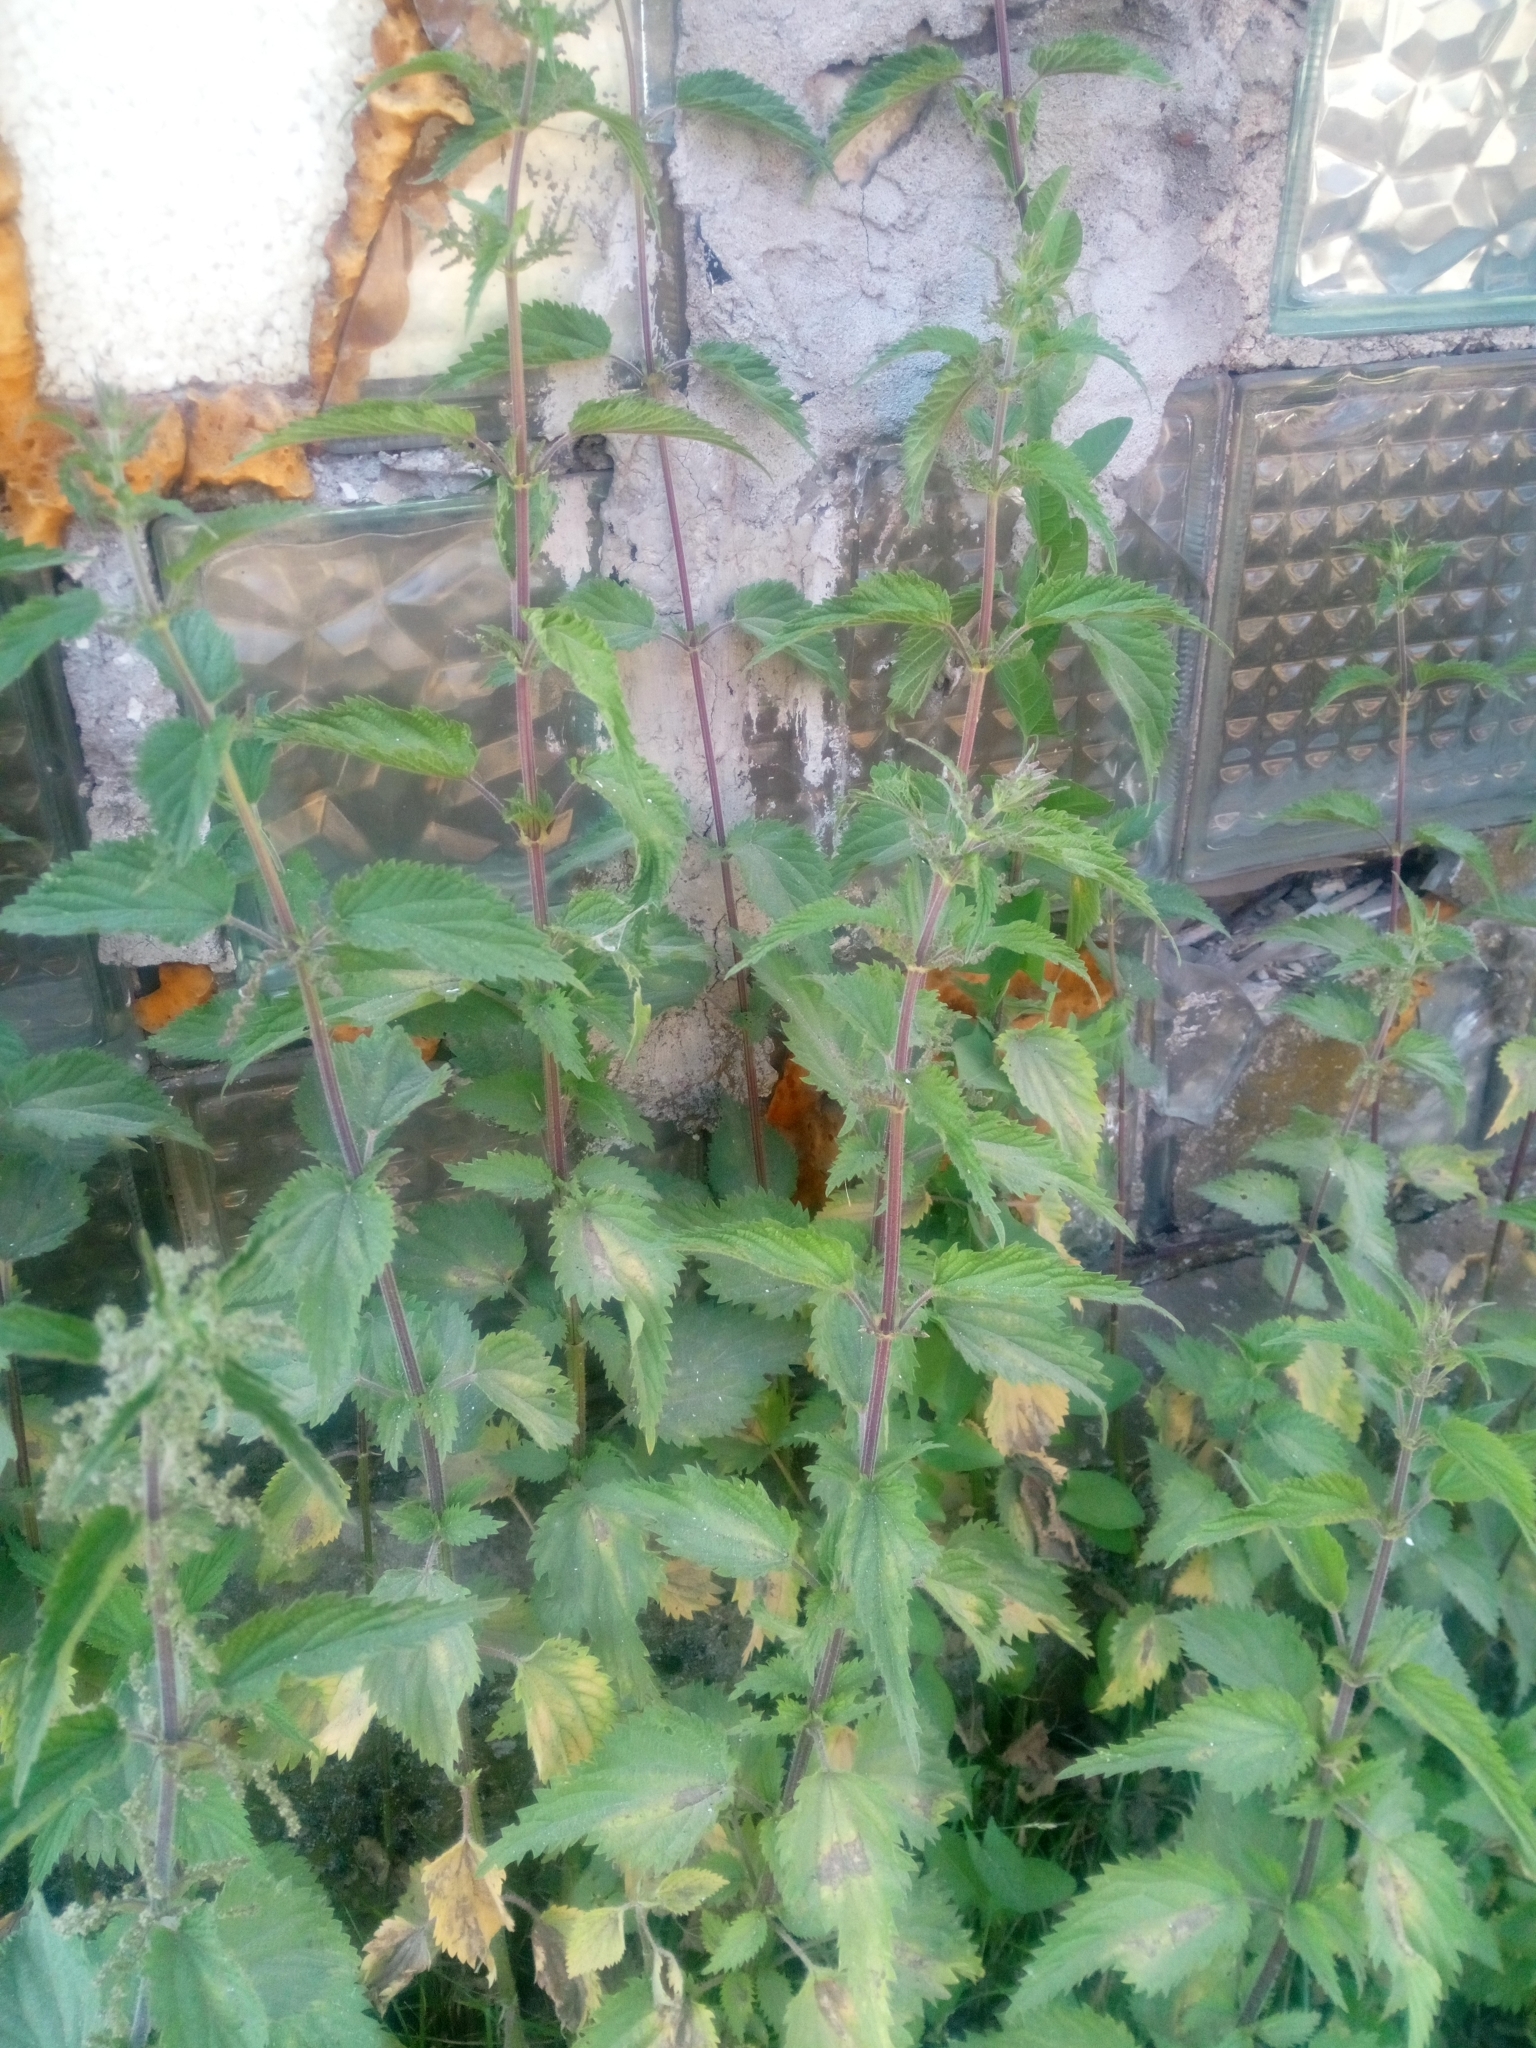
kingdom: Plantae
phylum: Tracheophyta
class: Magnoliopsida
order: Rosales
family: Urticaceae
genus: Urtica
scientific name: Urtica dioica
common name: Common nettle
